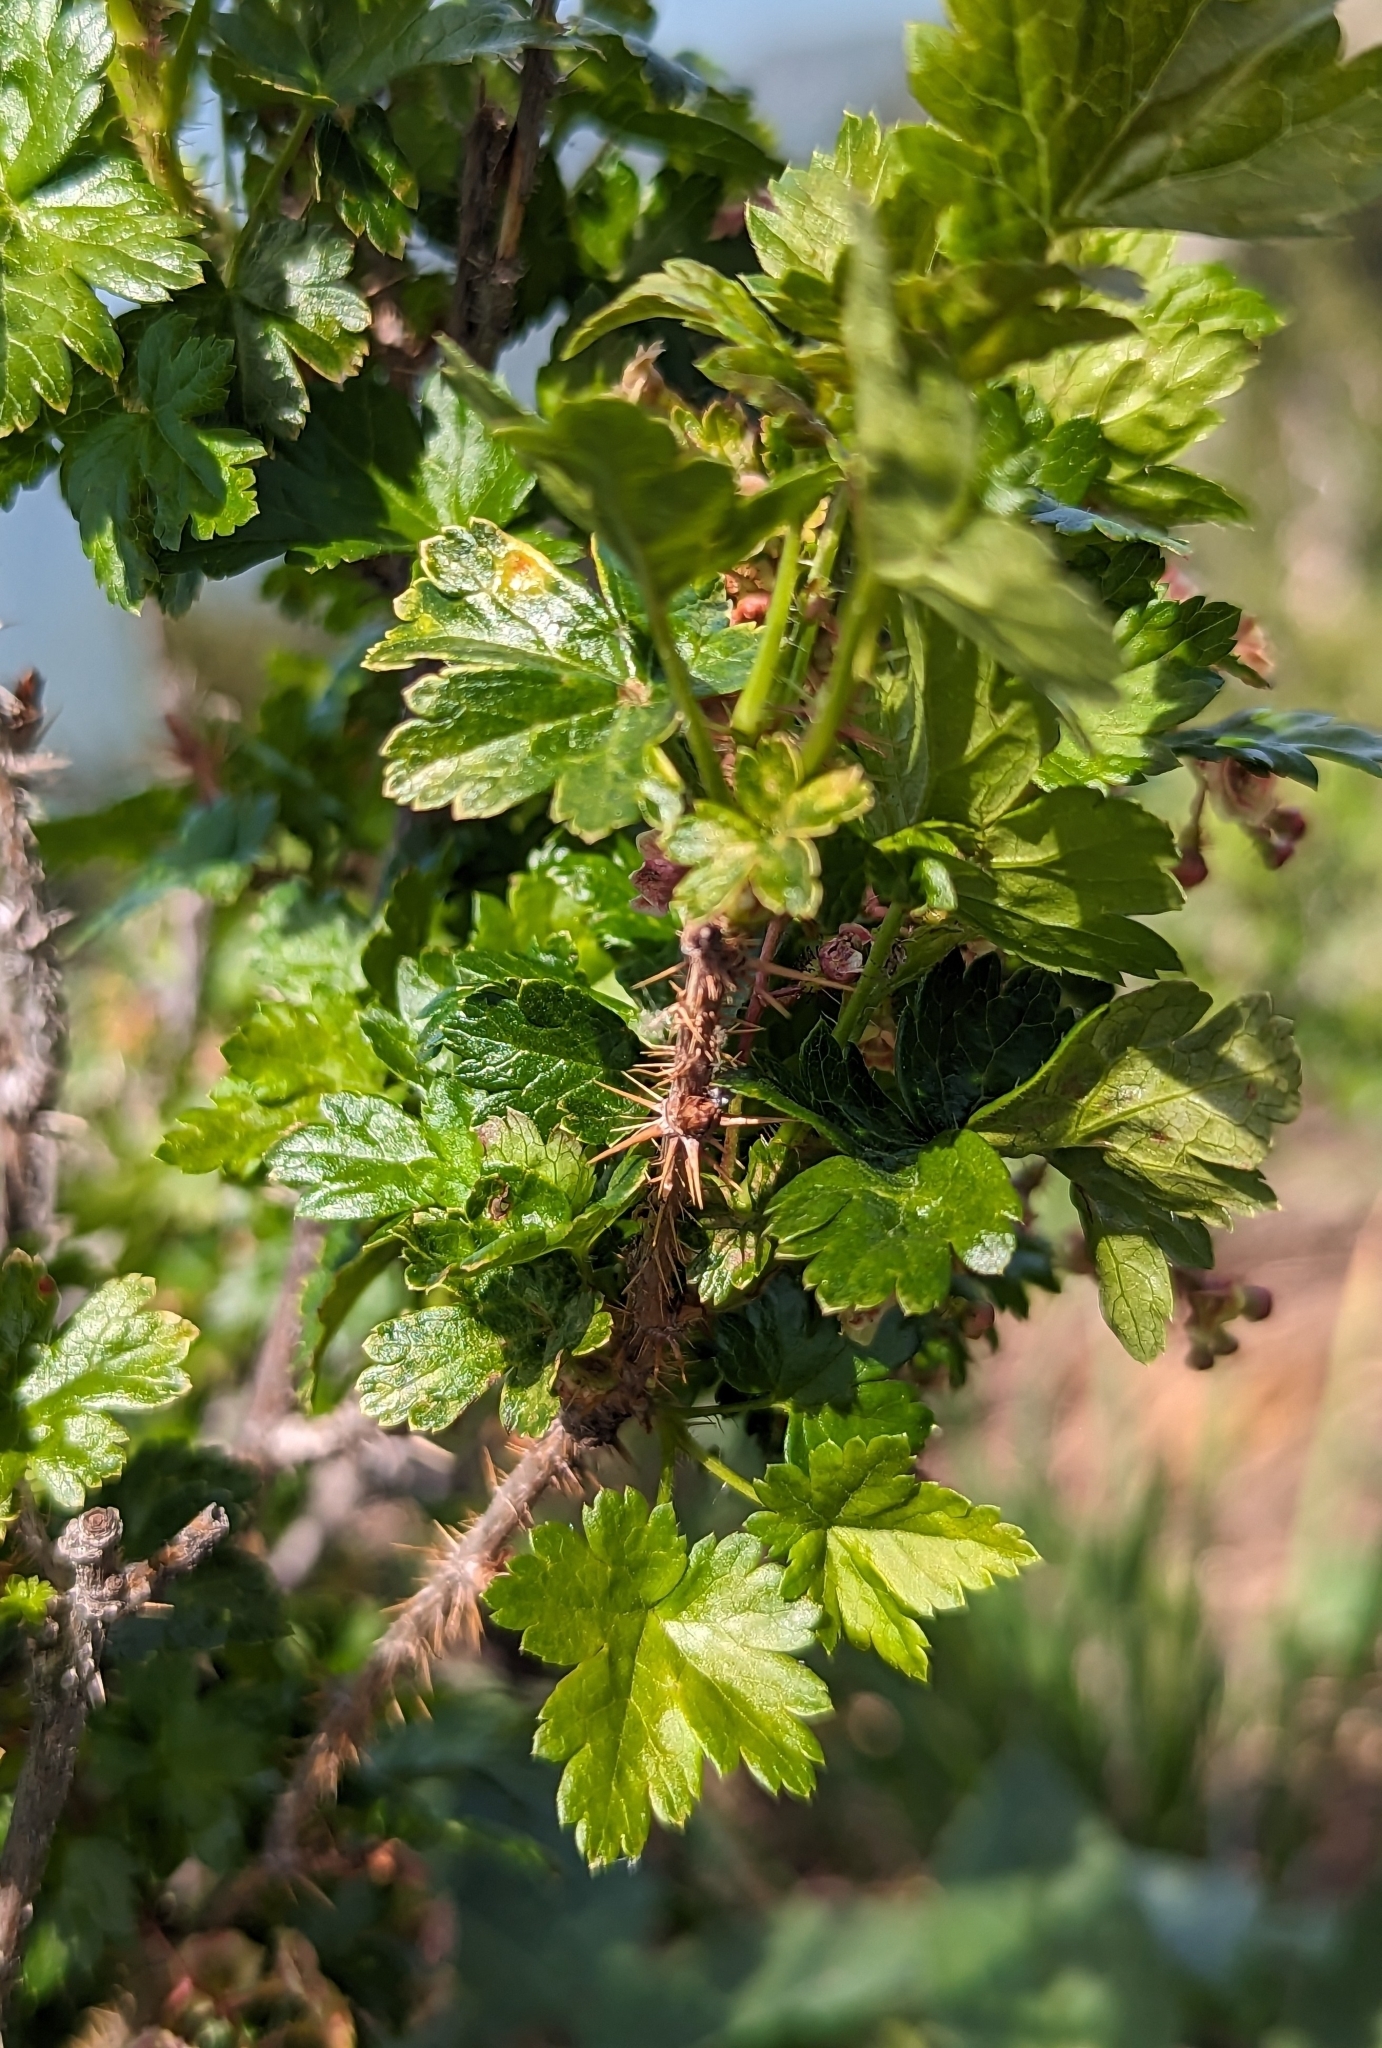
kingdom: Plantae
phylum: Tracheophyta
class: Magnoliopsida
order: Saxifragales
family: Grossulariaceae
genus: Ribes
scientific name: Ribes lacustre
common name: Black gooseberry
